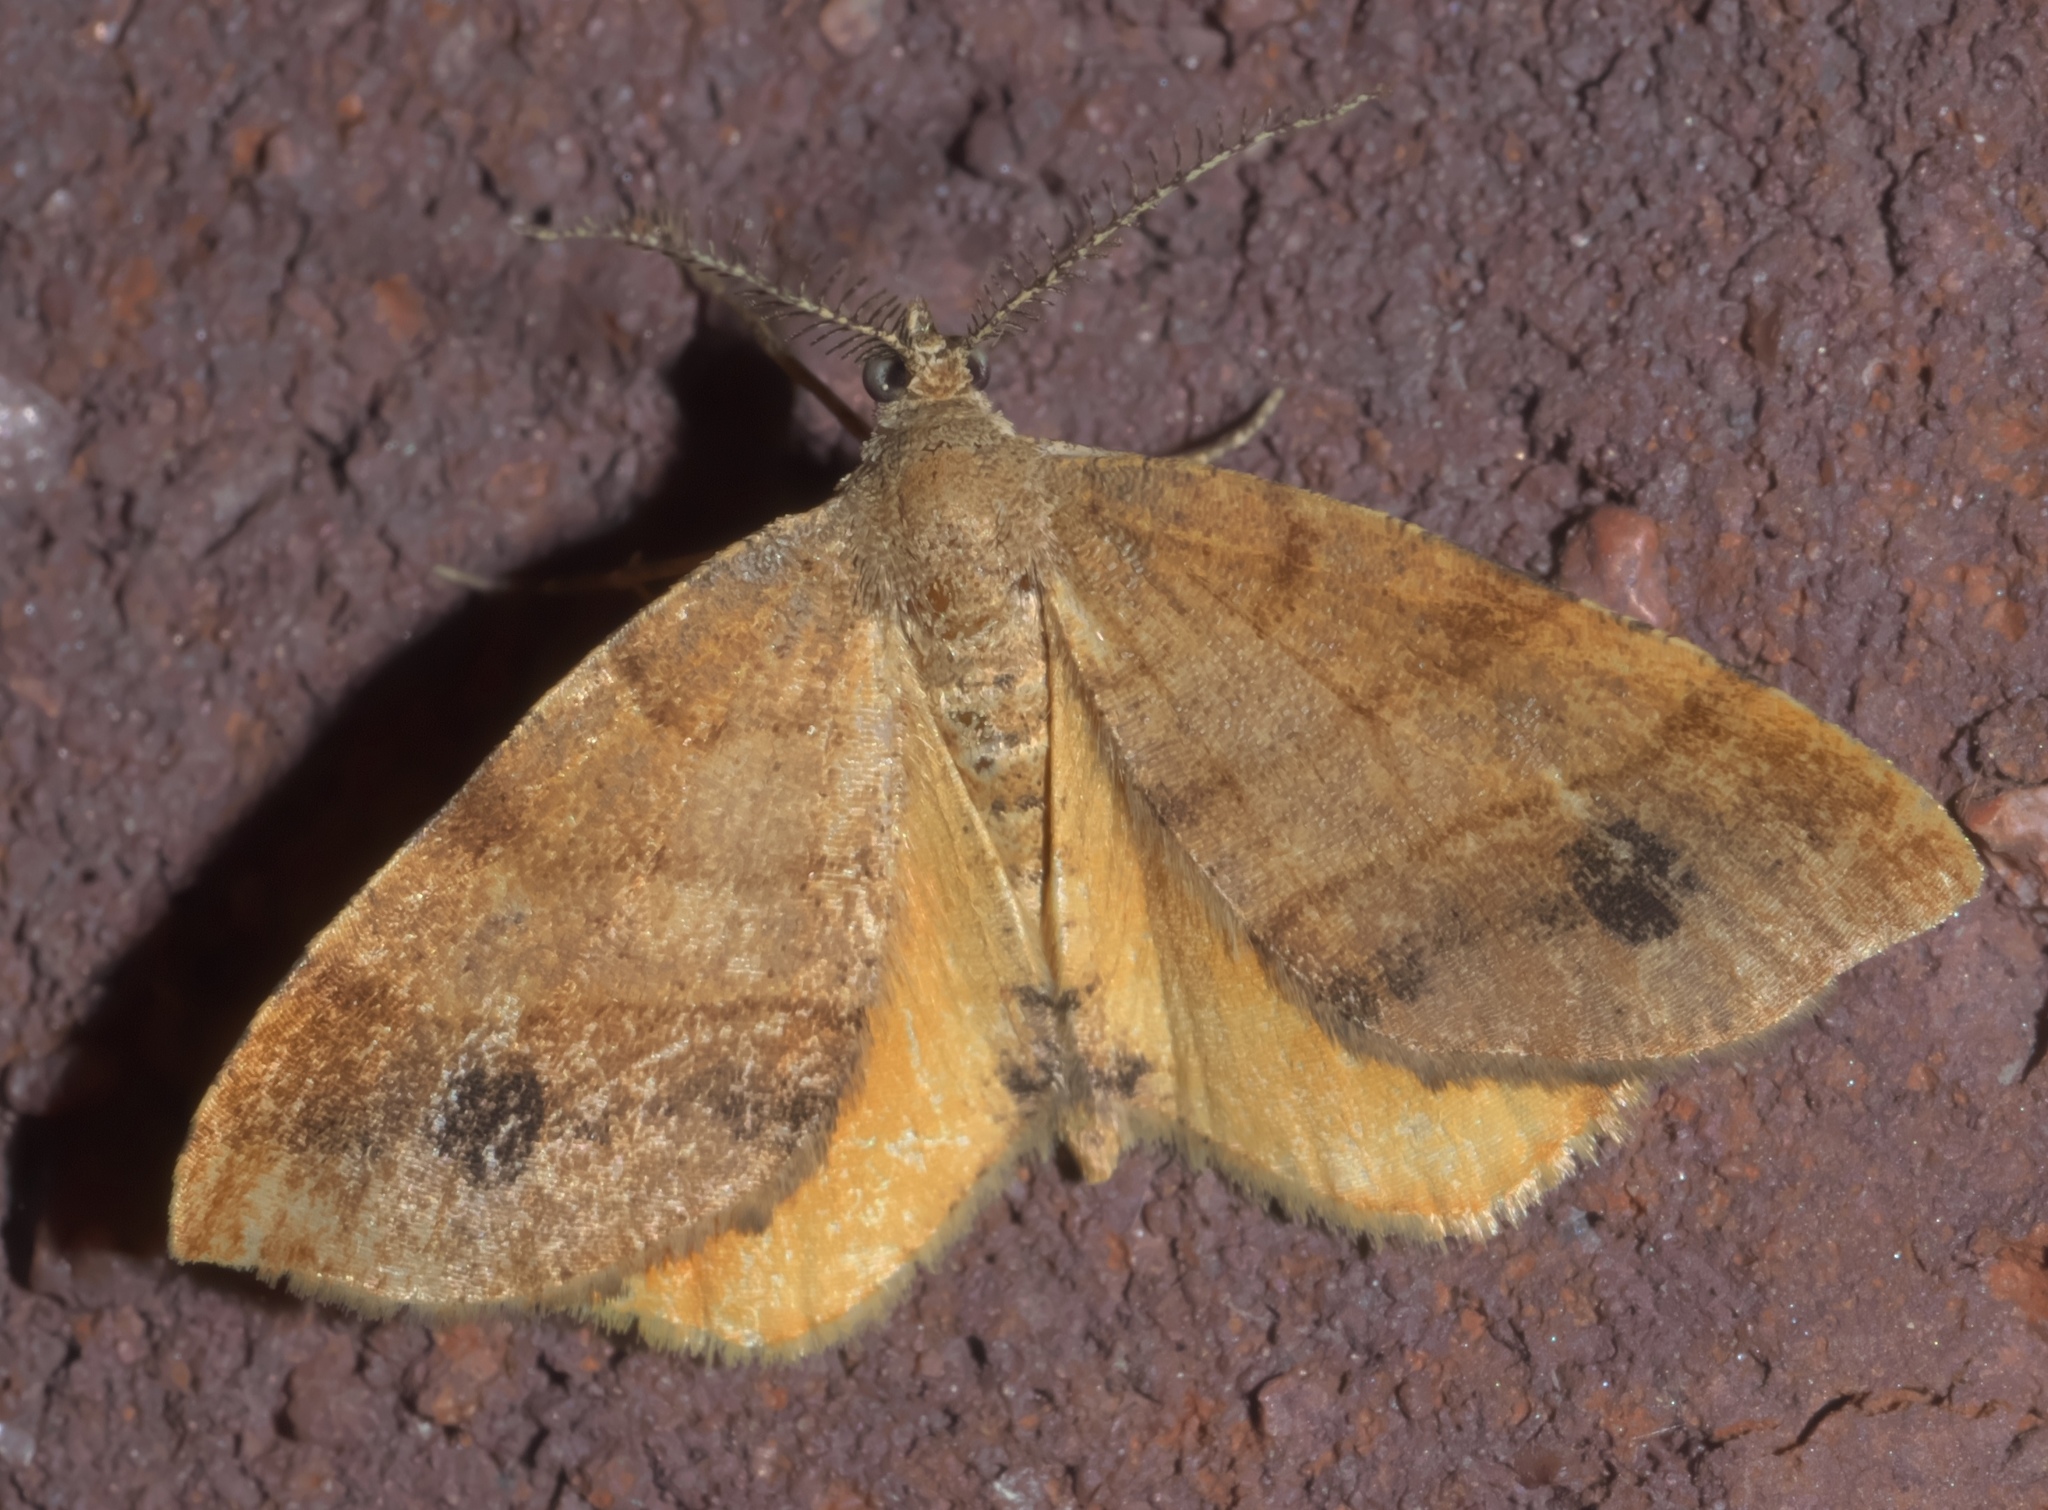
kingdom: Animalia
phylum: Arthropoda
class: Insecta
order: Lepidoptera
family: Geometridae
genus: Mellilla
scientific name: Mellilla xanthometata
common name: Orange wing moth
